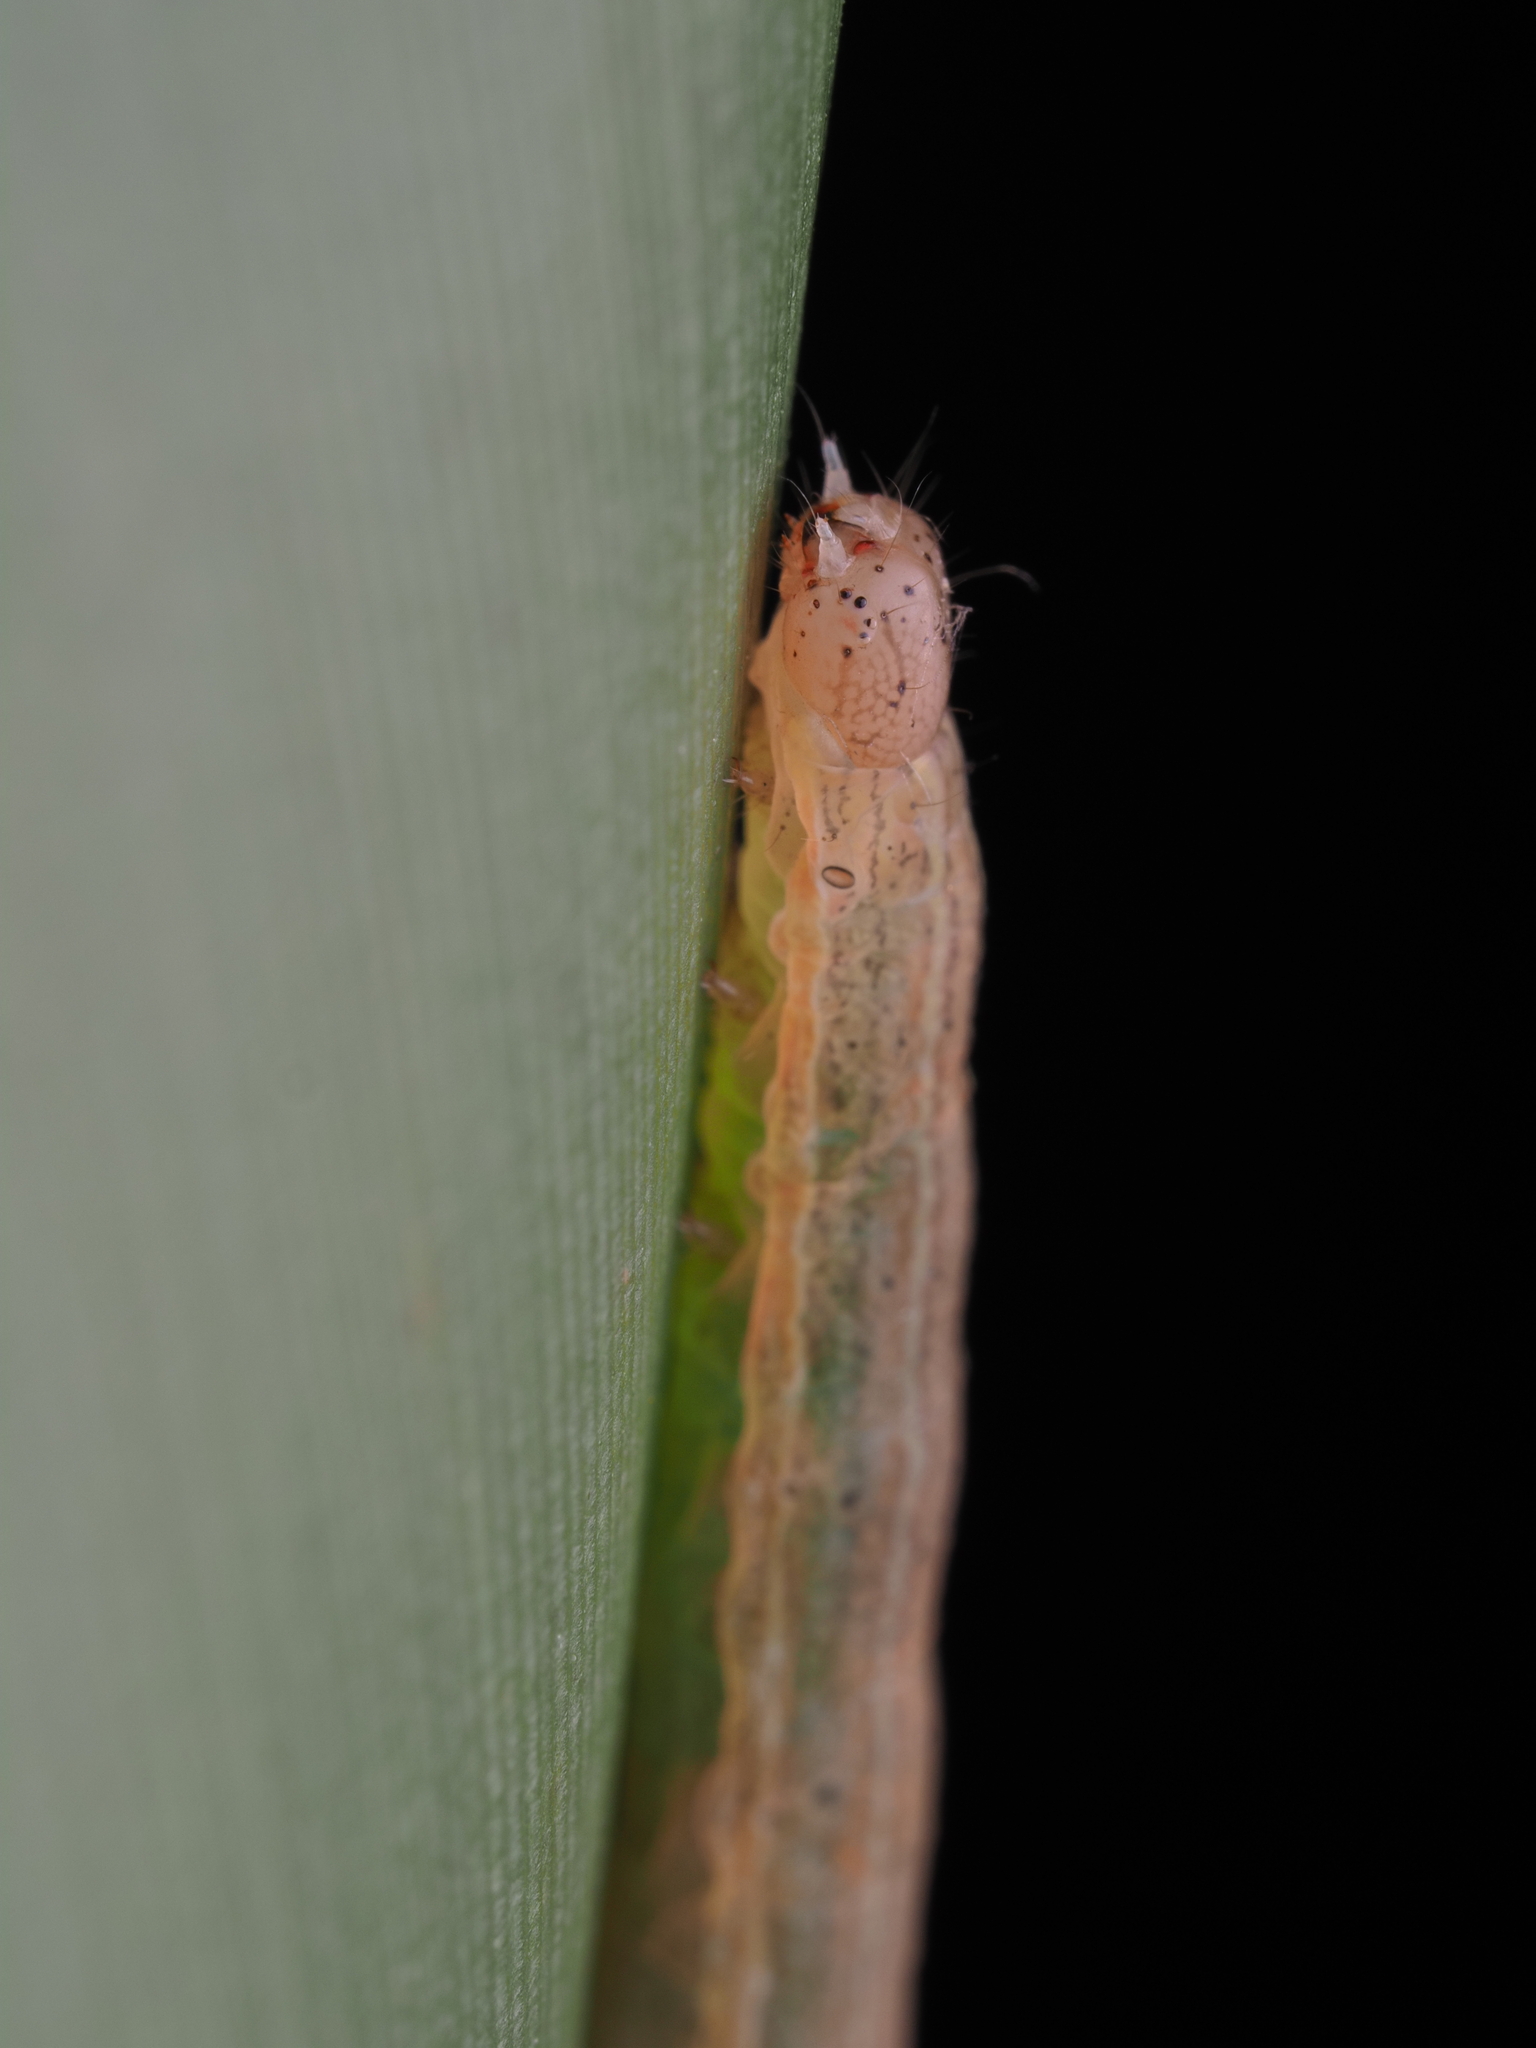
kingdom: Animalia
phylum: Arthropoda
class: Insecta
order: Lepidoptera
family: Noctuidae
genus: Ichneutica
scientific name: Ichneutica
